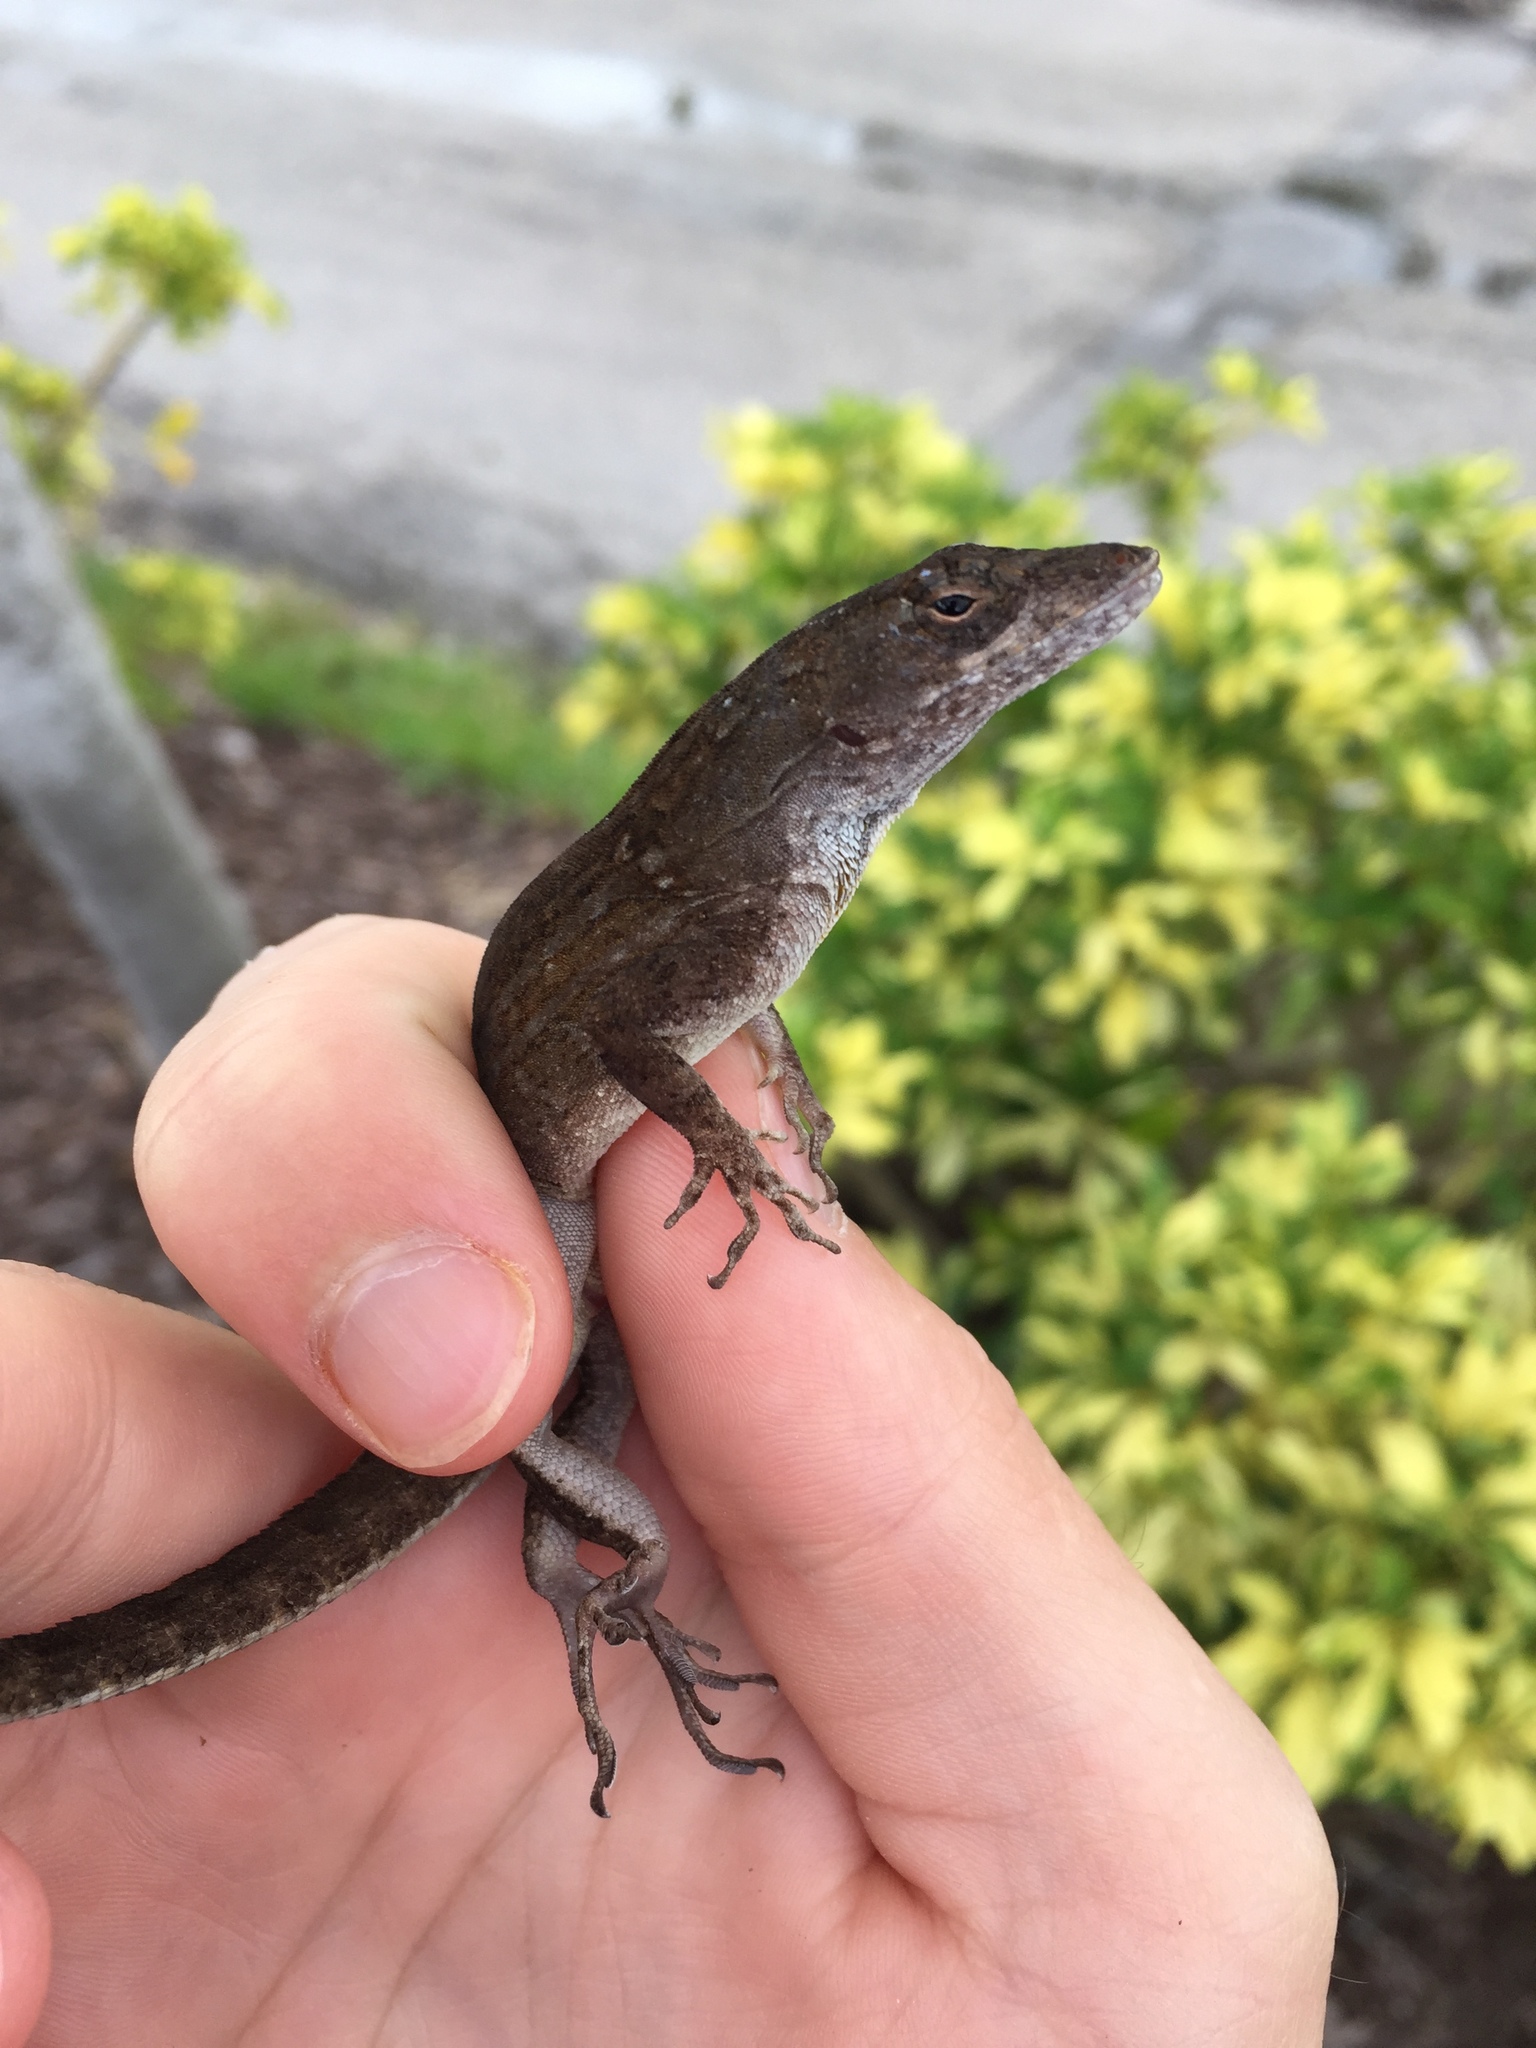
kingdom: Animalia
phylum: Chordata
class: Squamata
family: Dactyloidae
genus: Anolis
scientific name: Anolis sagrei
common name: Brown anole
